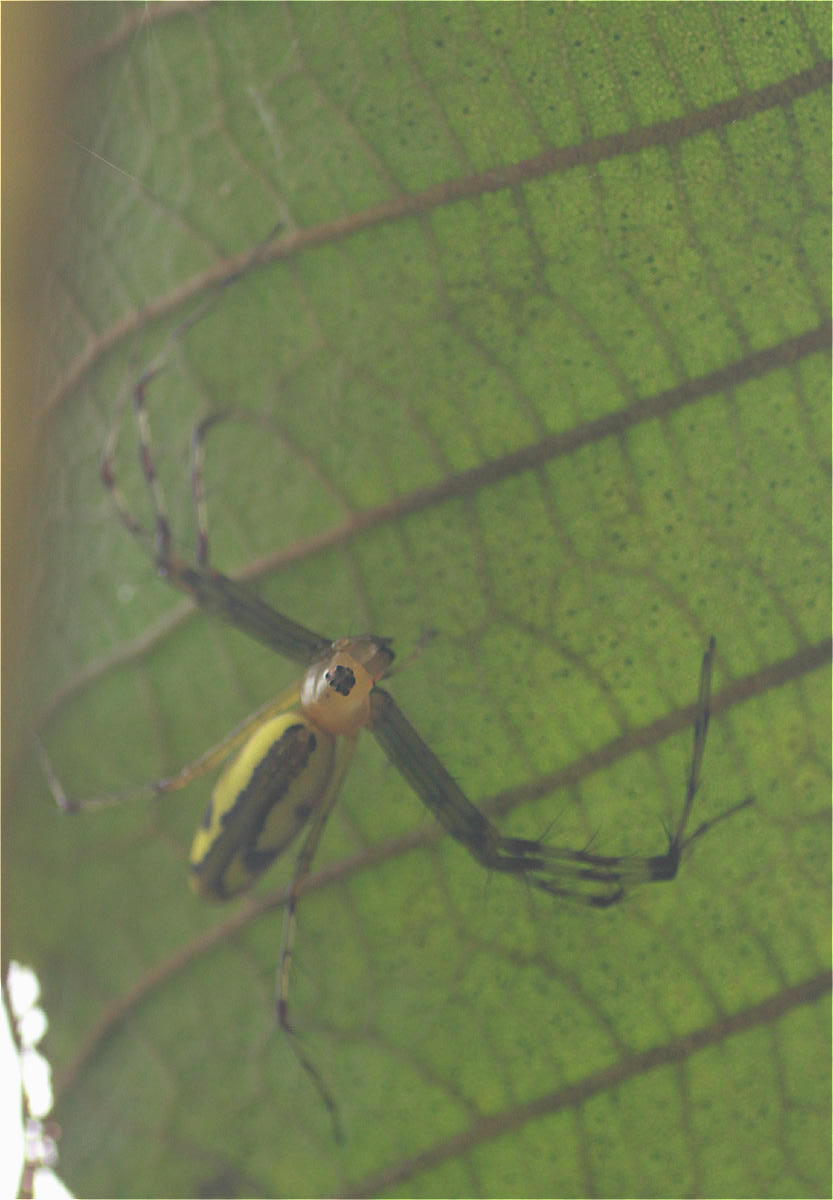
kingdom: Animalia
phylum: Arthropoda
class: Arachnida
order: Araneae
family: Oxyopidae
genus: Tapinillus
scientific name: Tapinillus longipes
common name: Lynx spiders
